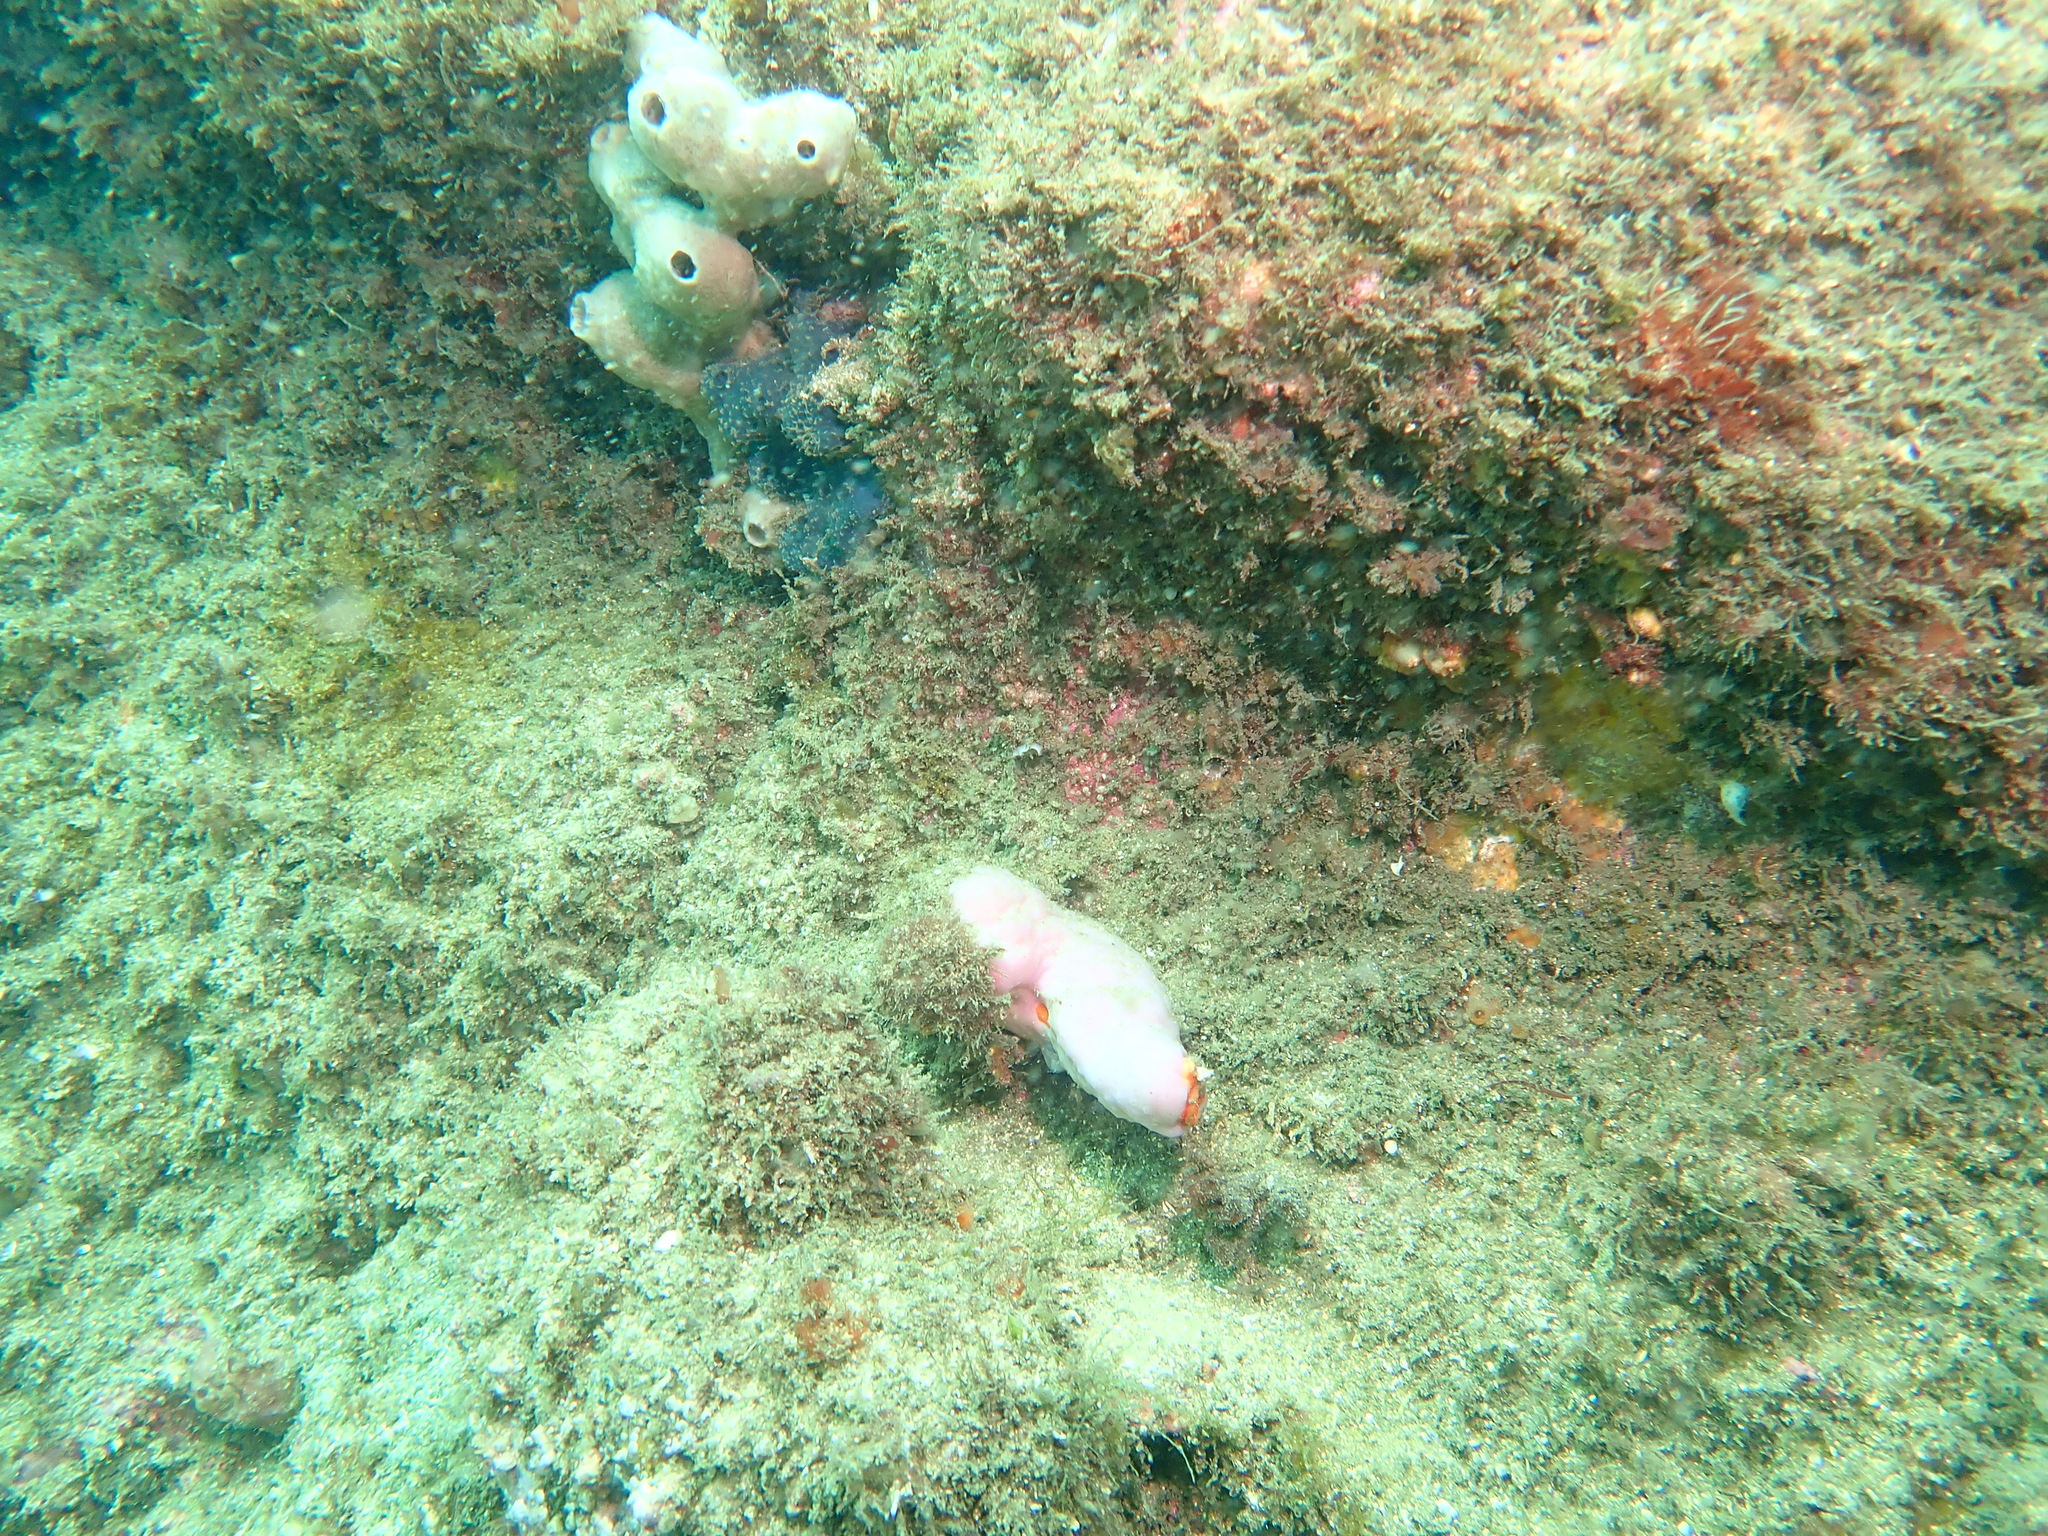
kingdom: Animalia
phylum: Chordata
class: Ascidiacea
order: Stolidobranchia
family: Styelidae
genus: Cnemidocarpa
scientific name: Cnemidocarpa pedata
